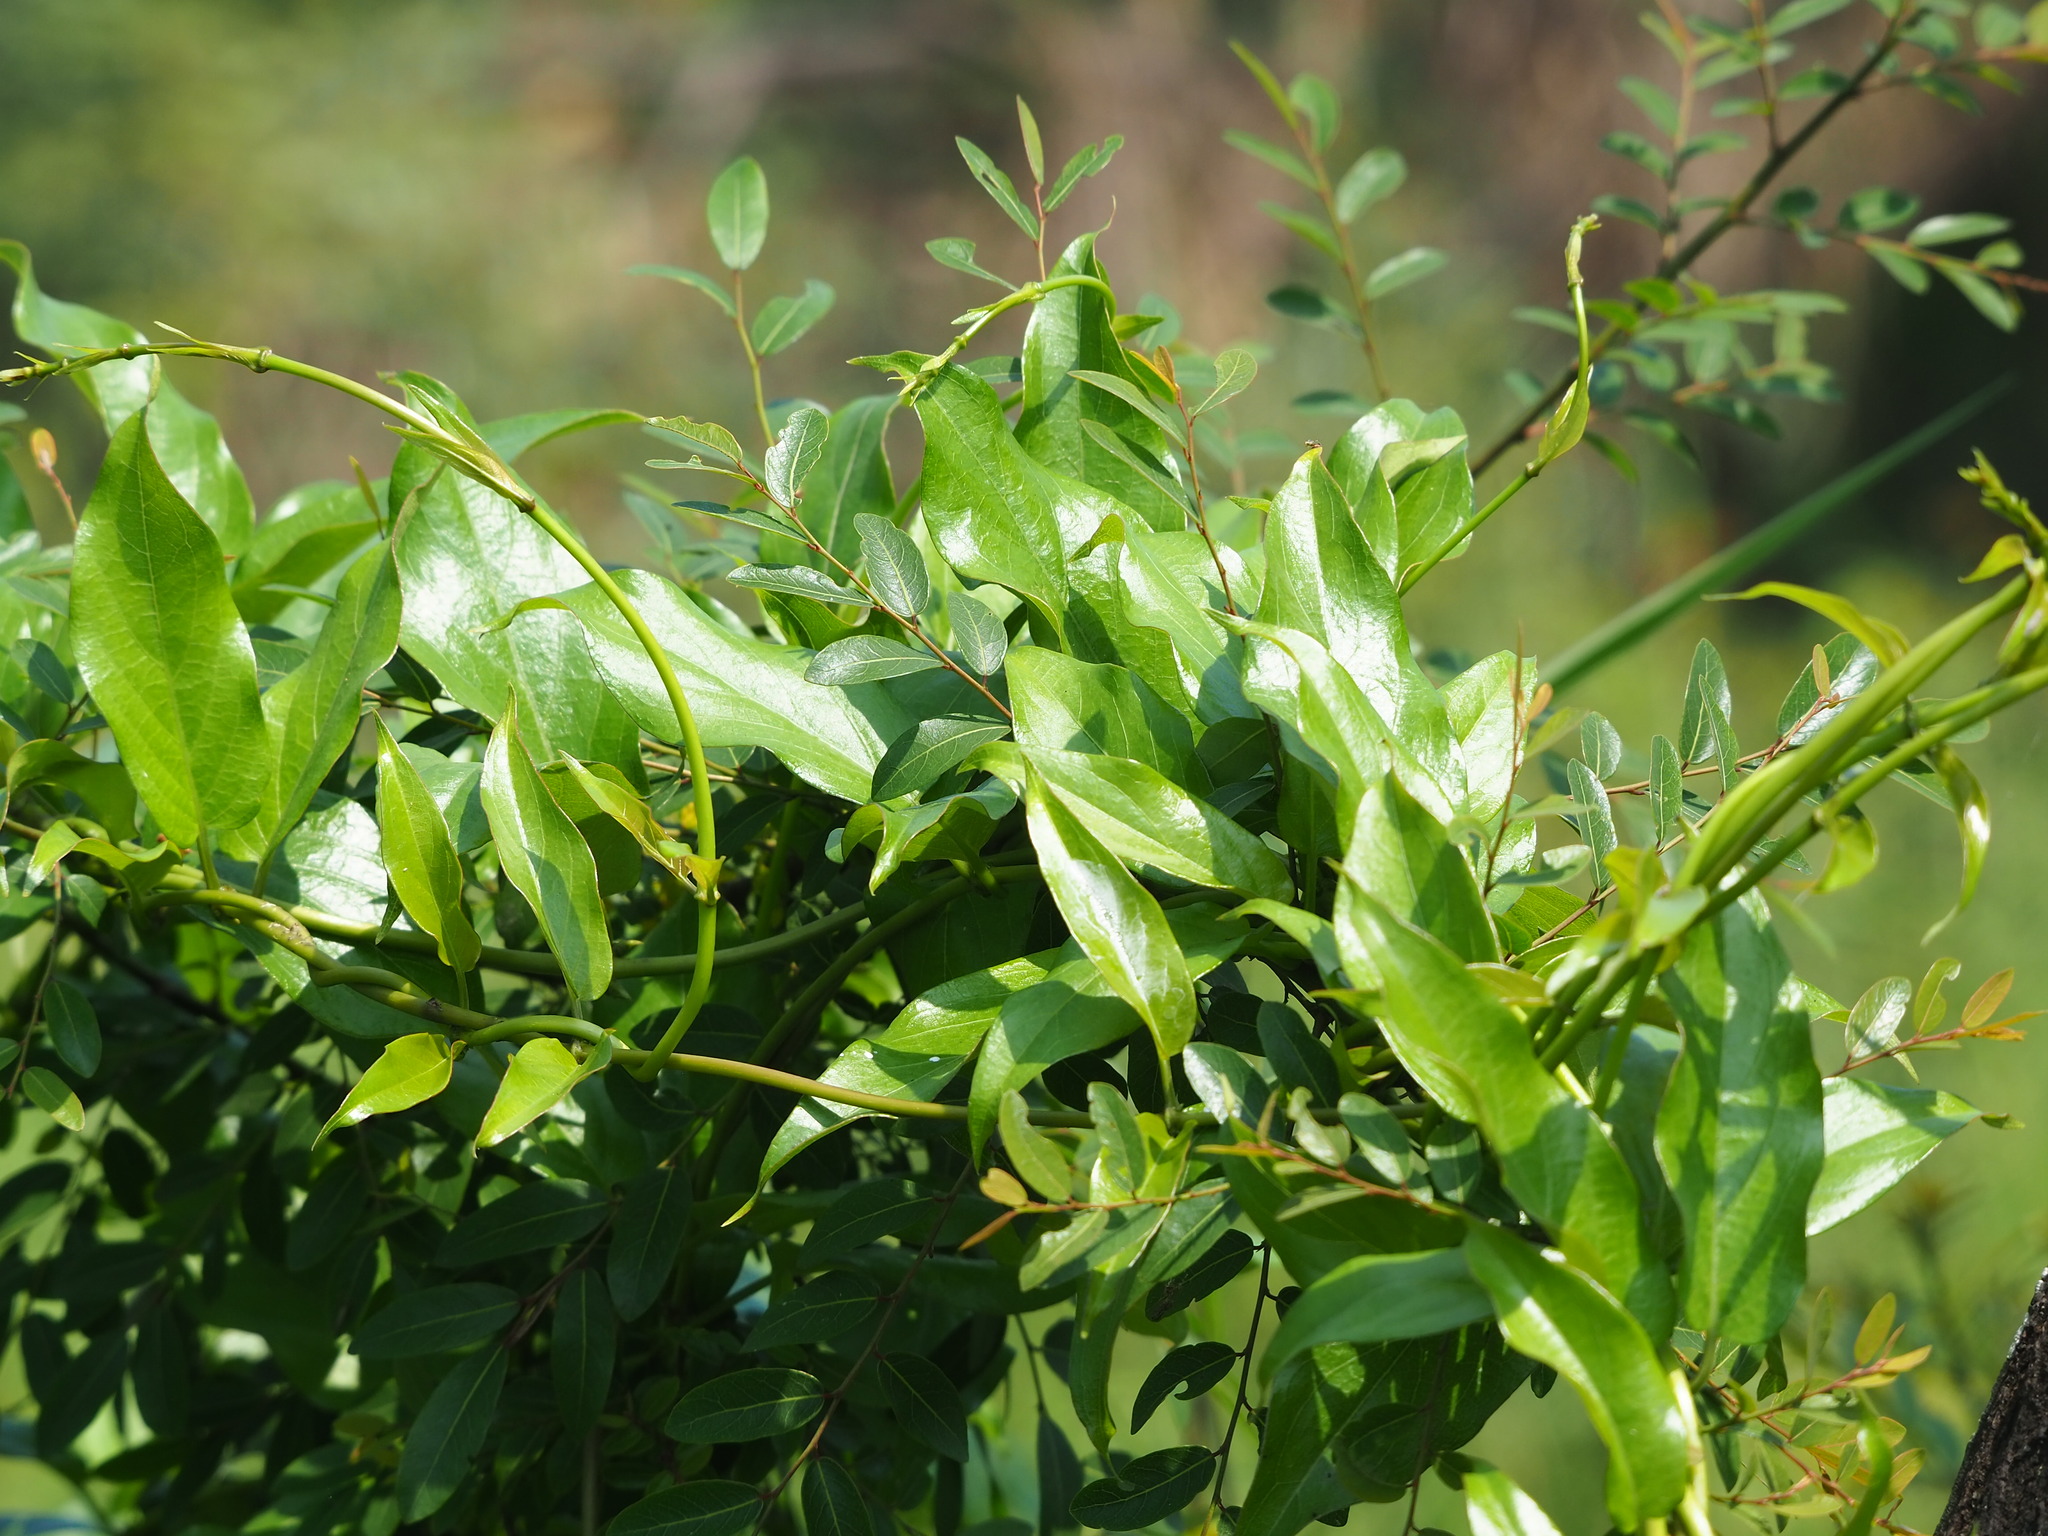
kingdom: Plantae
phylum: Tracheophyta
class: Magnoliopsida
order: Gentianales
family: Rubiaceae
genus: Paederia
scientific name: Paederia foetida
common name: Stinkvine
